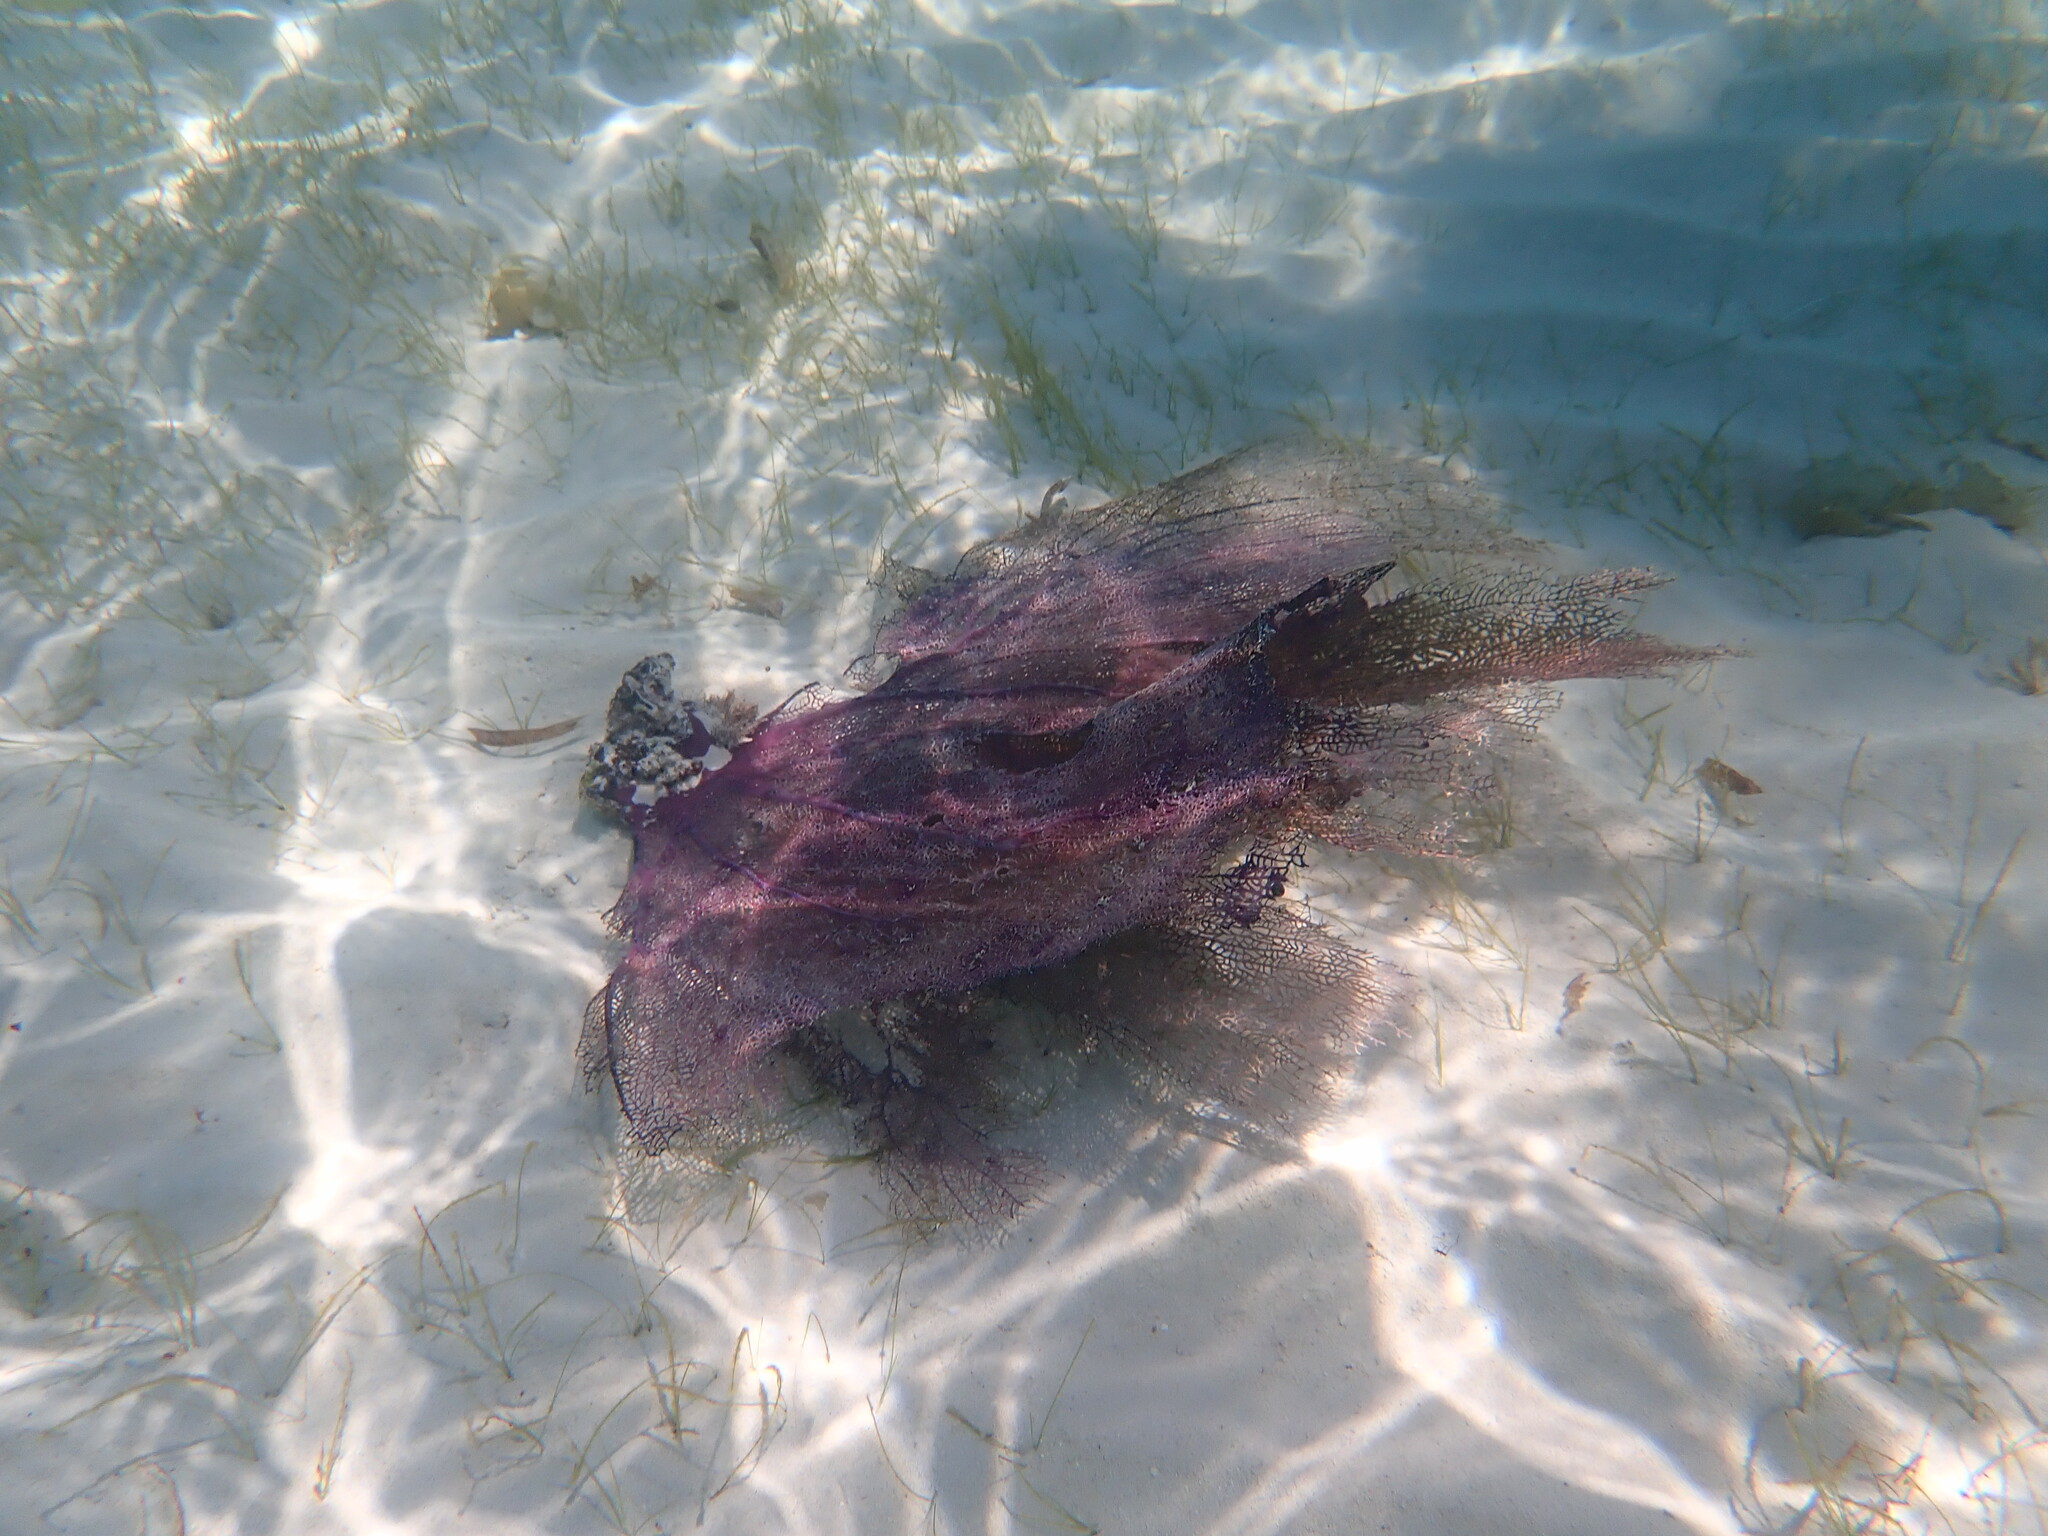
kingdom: Animalia
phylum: Cnidaria
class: Anthozoa
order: Malacalcyonacea
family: Gorgoniidae
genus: Gorgonia
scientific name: Gorgonia ventalina
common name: Common sea fan
